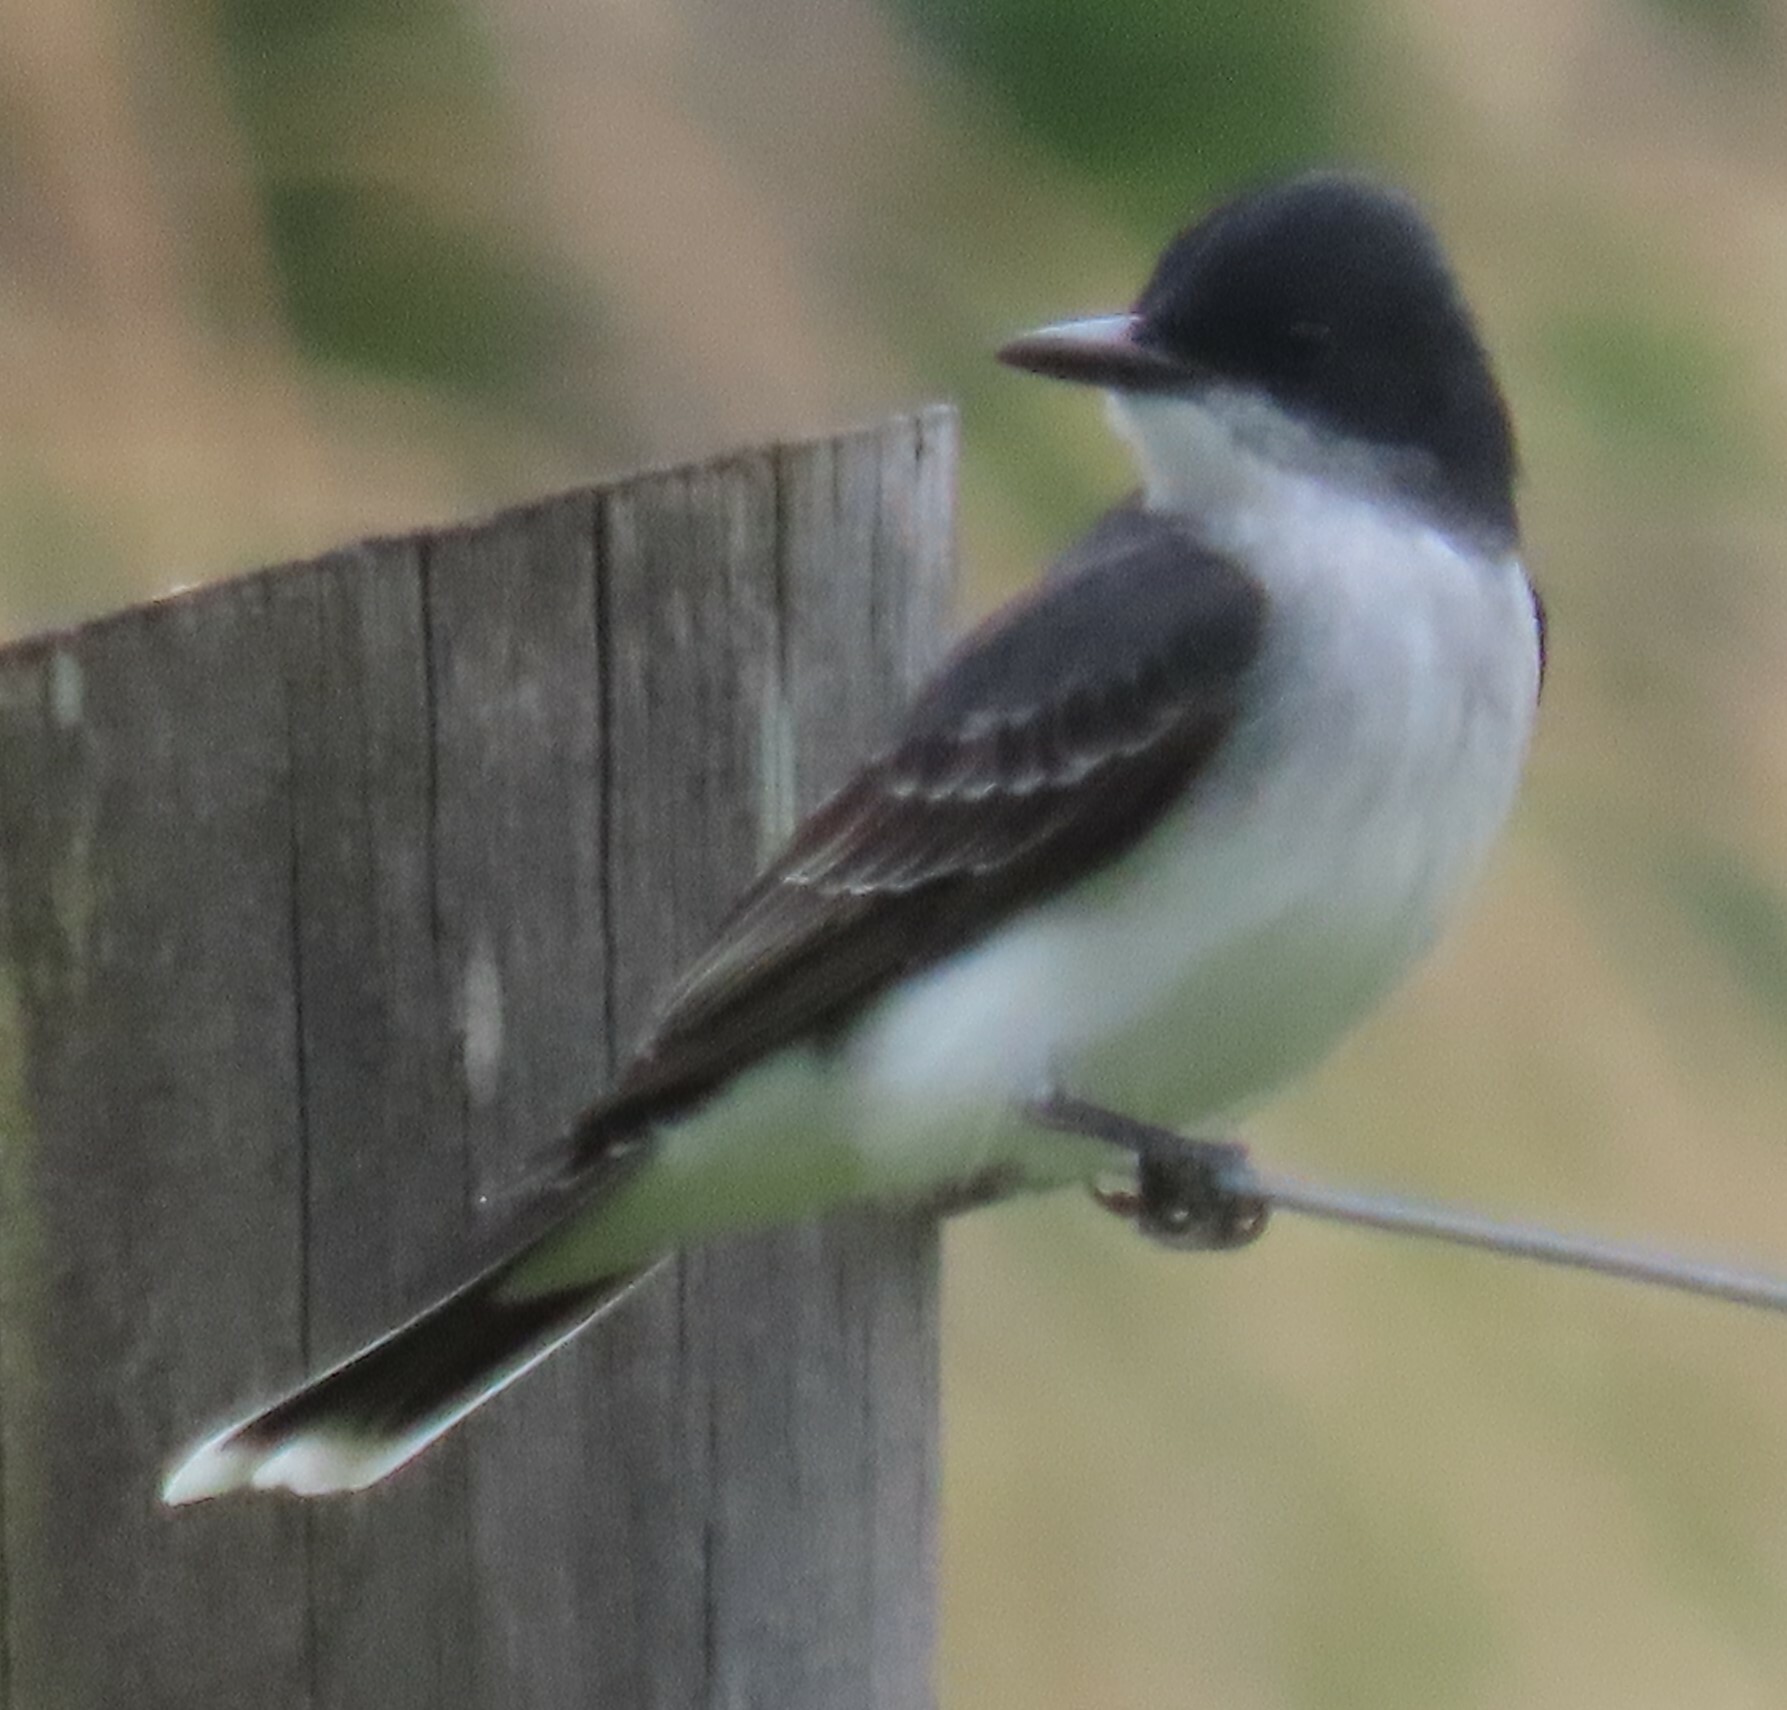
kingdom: Animalia
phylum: Chordata
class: Aves
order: Passeriformes
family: Tyrannidae
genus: Tyrannus
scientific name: Tyrannus tyrannus
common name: Eastern kingbird
